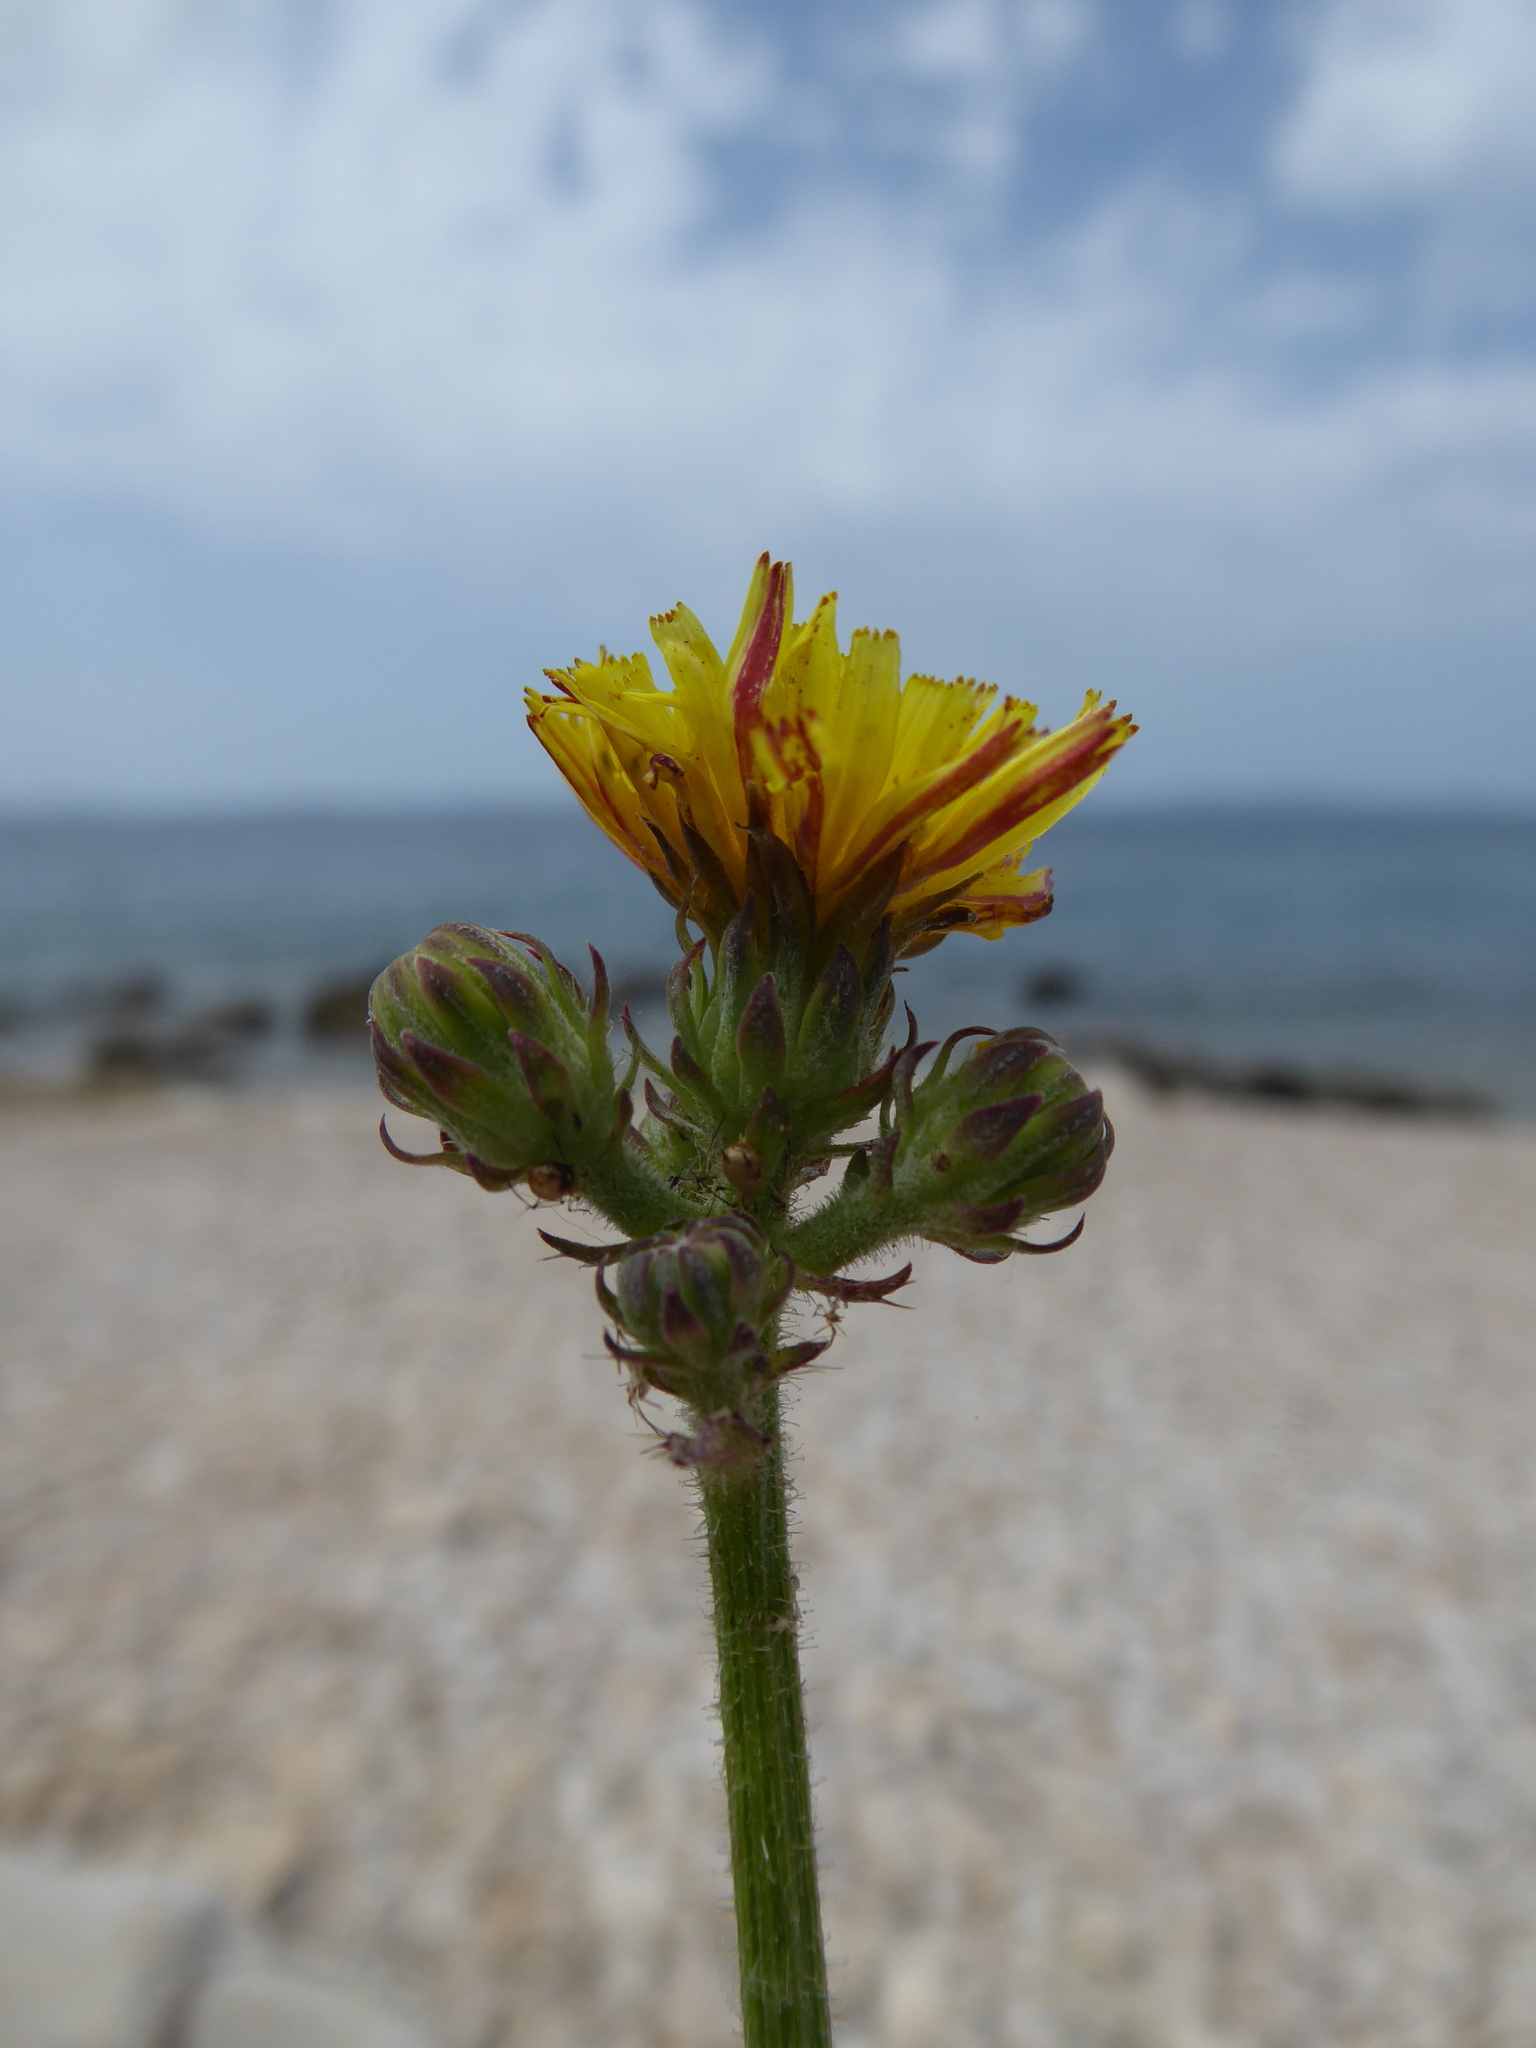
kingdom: Plantae
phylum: Tracheophyta
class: Magnoliopsida
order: Asterales
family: Asteraceae
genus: Picris
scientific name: Picris hieracioides
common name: Hawkweed oxtongue
